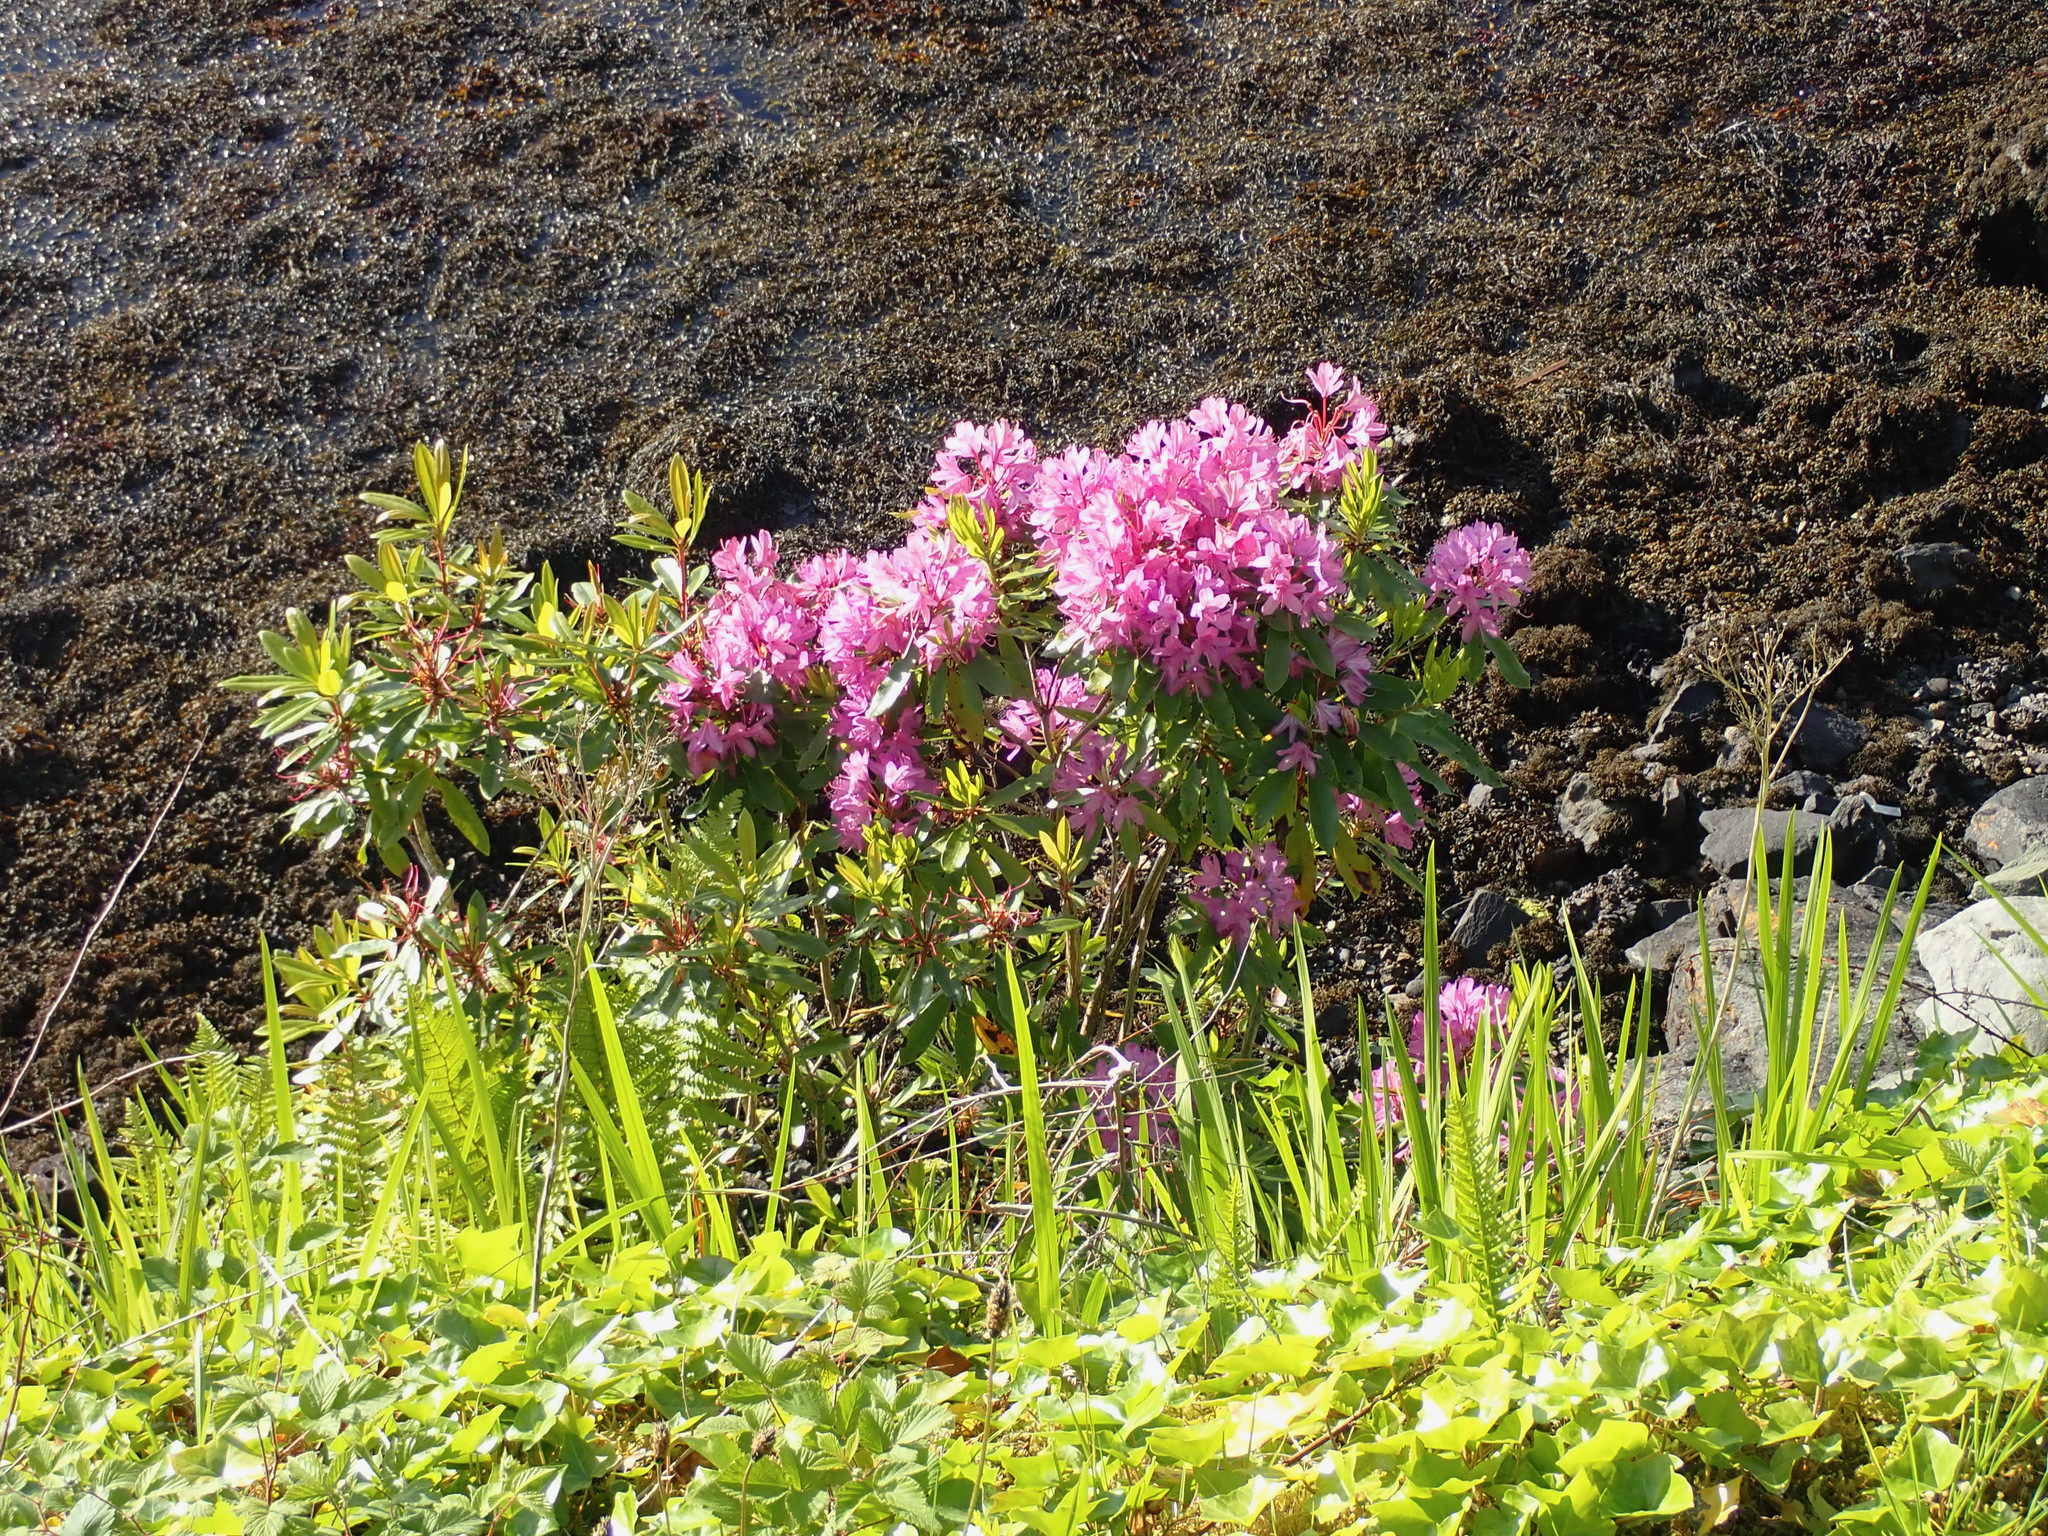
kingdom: Plantae
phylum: Tracheophyta
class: Magnoliopsida
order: Ericales
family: Ericaceae
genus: Rhododendron
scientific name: Rhododendron ponticum
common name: Rhododendron
